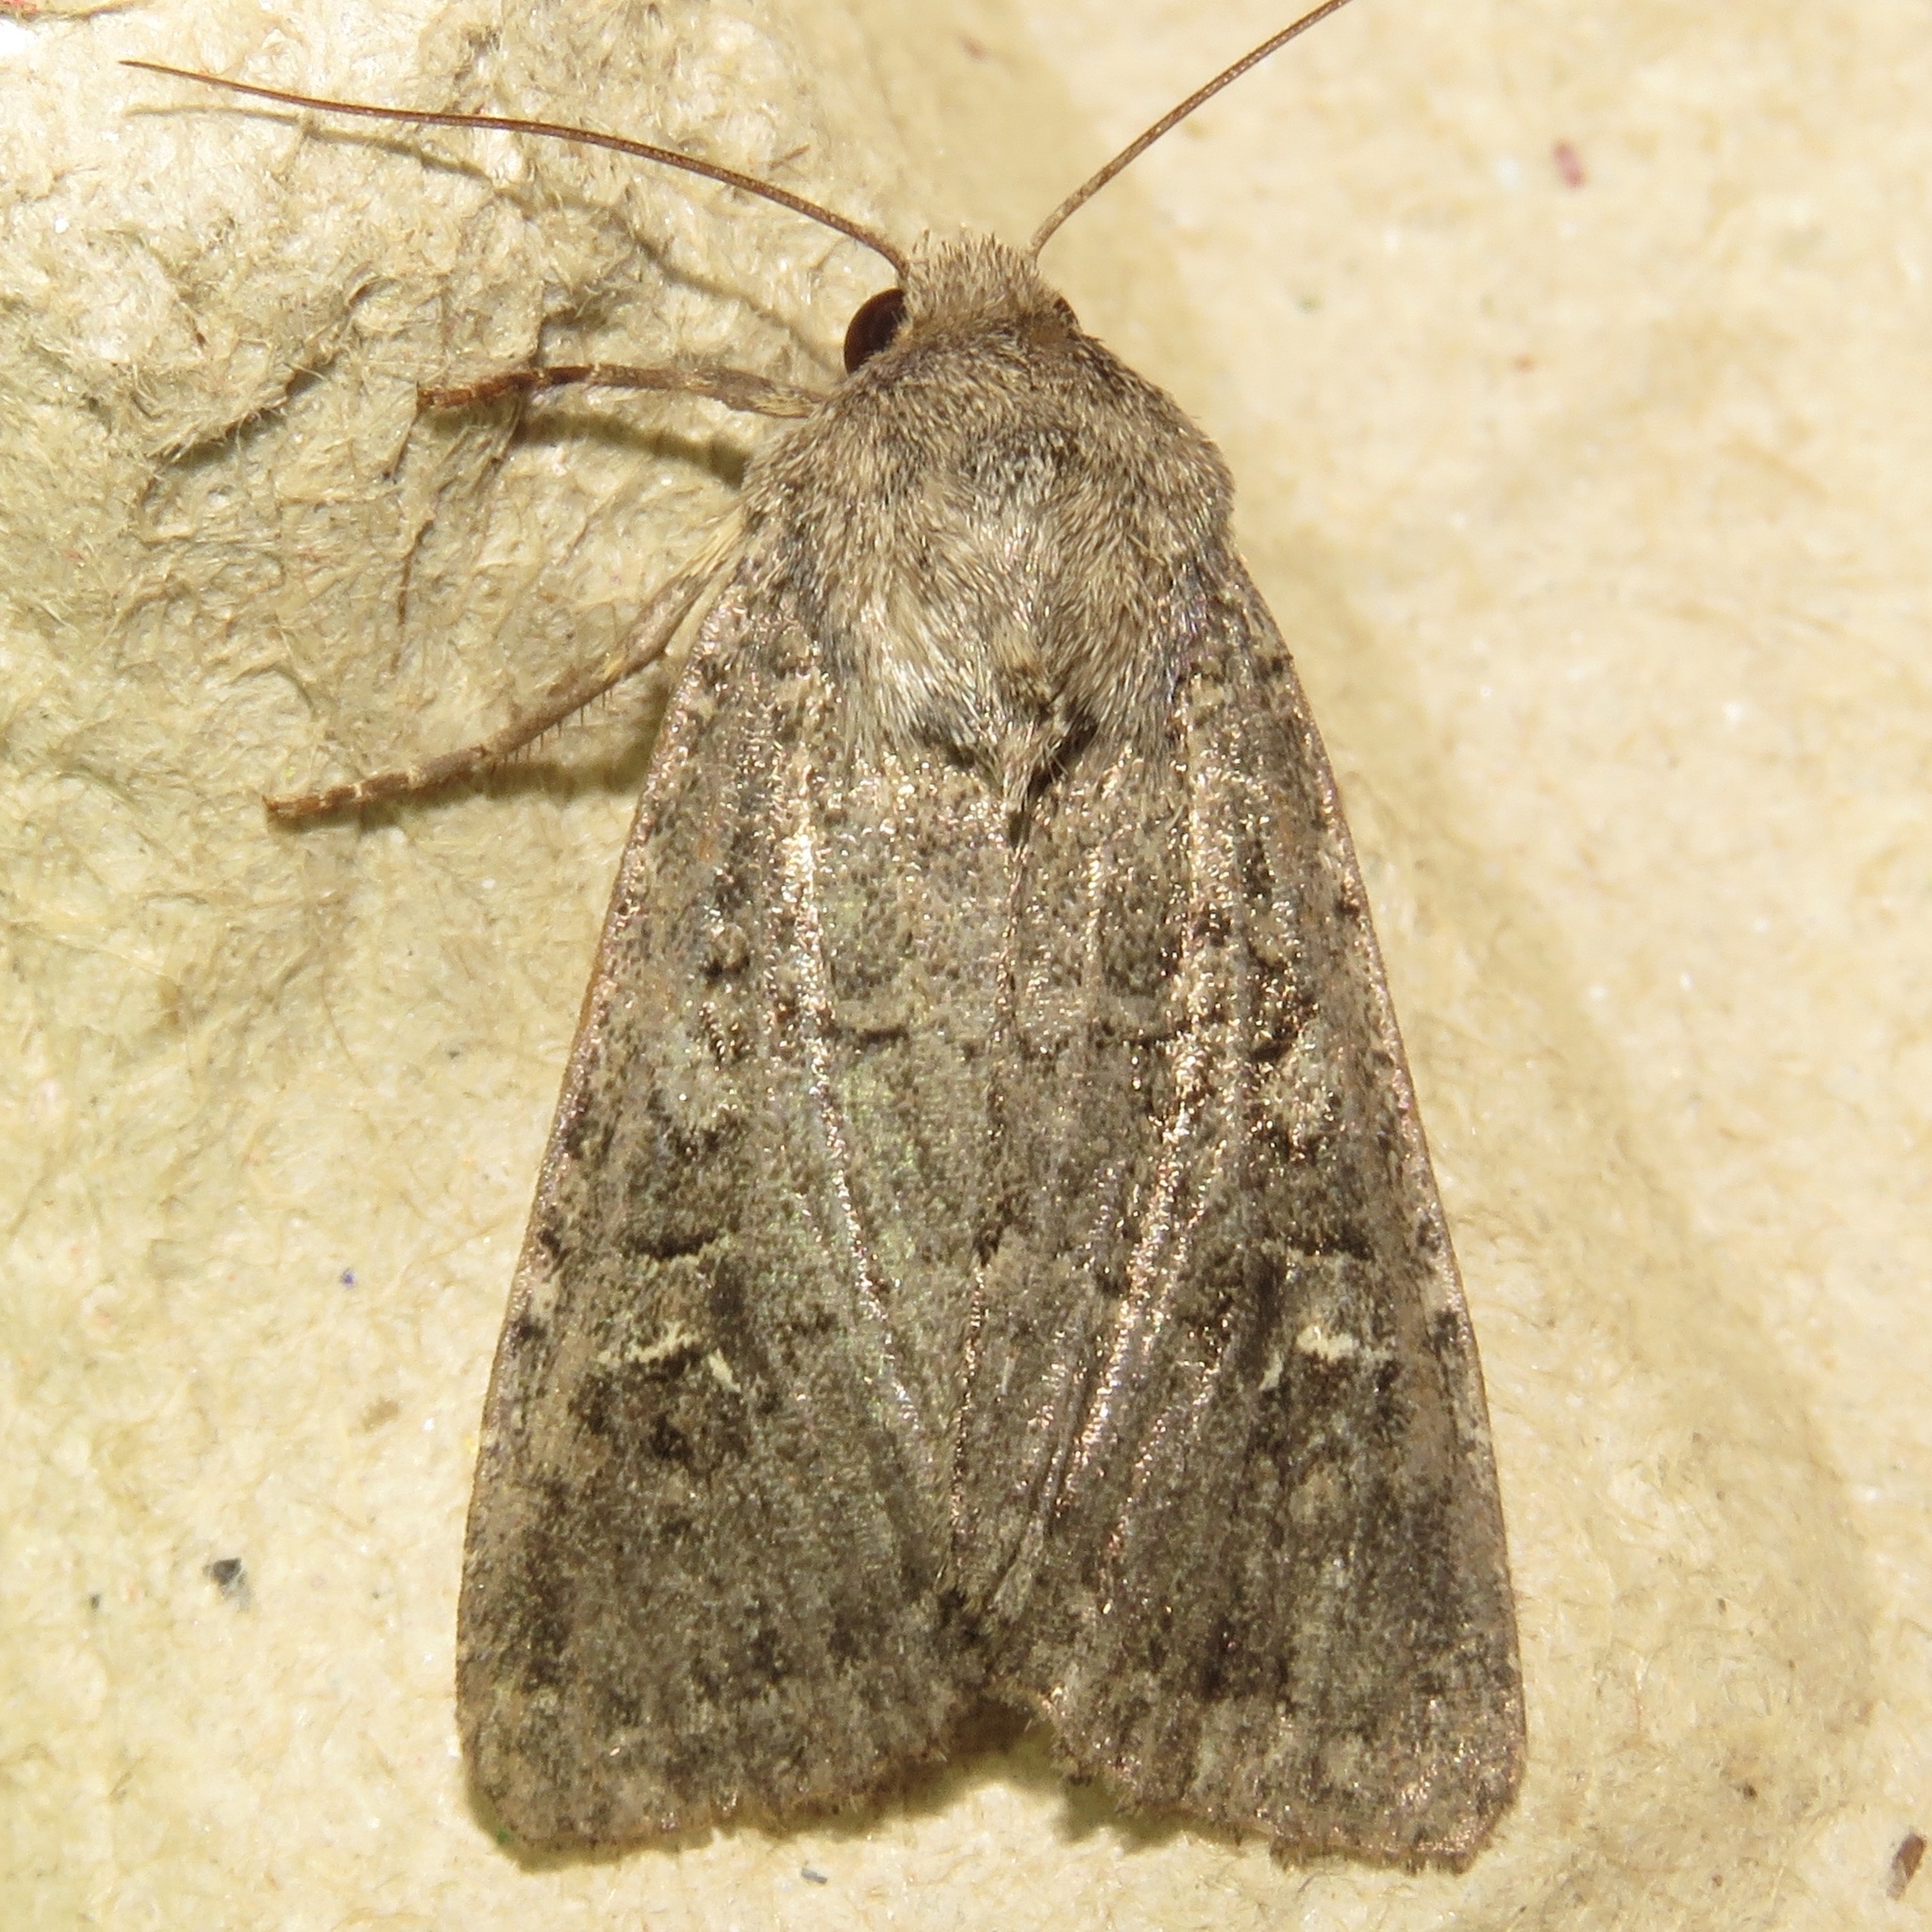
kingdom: Animalia
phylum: Arthropoda
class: Insecta
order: Lepidoptera
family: Noctuidae
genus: Apamea
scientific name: Apamea devastator
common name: Glassy cutworm
